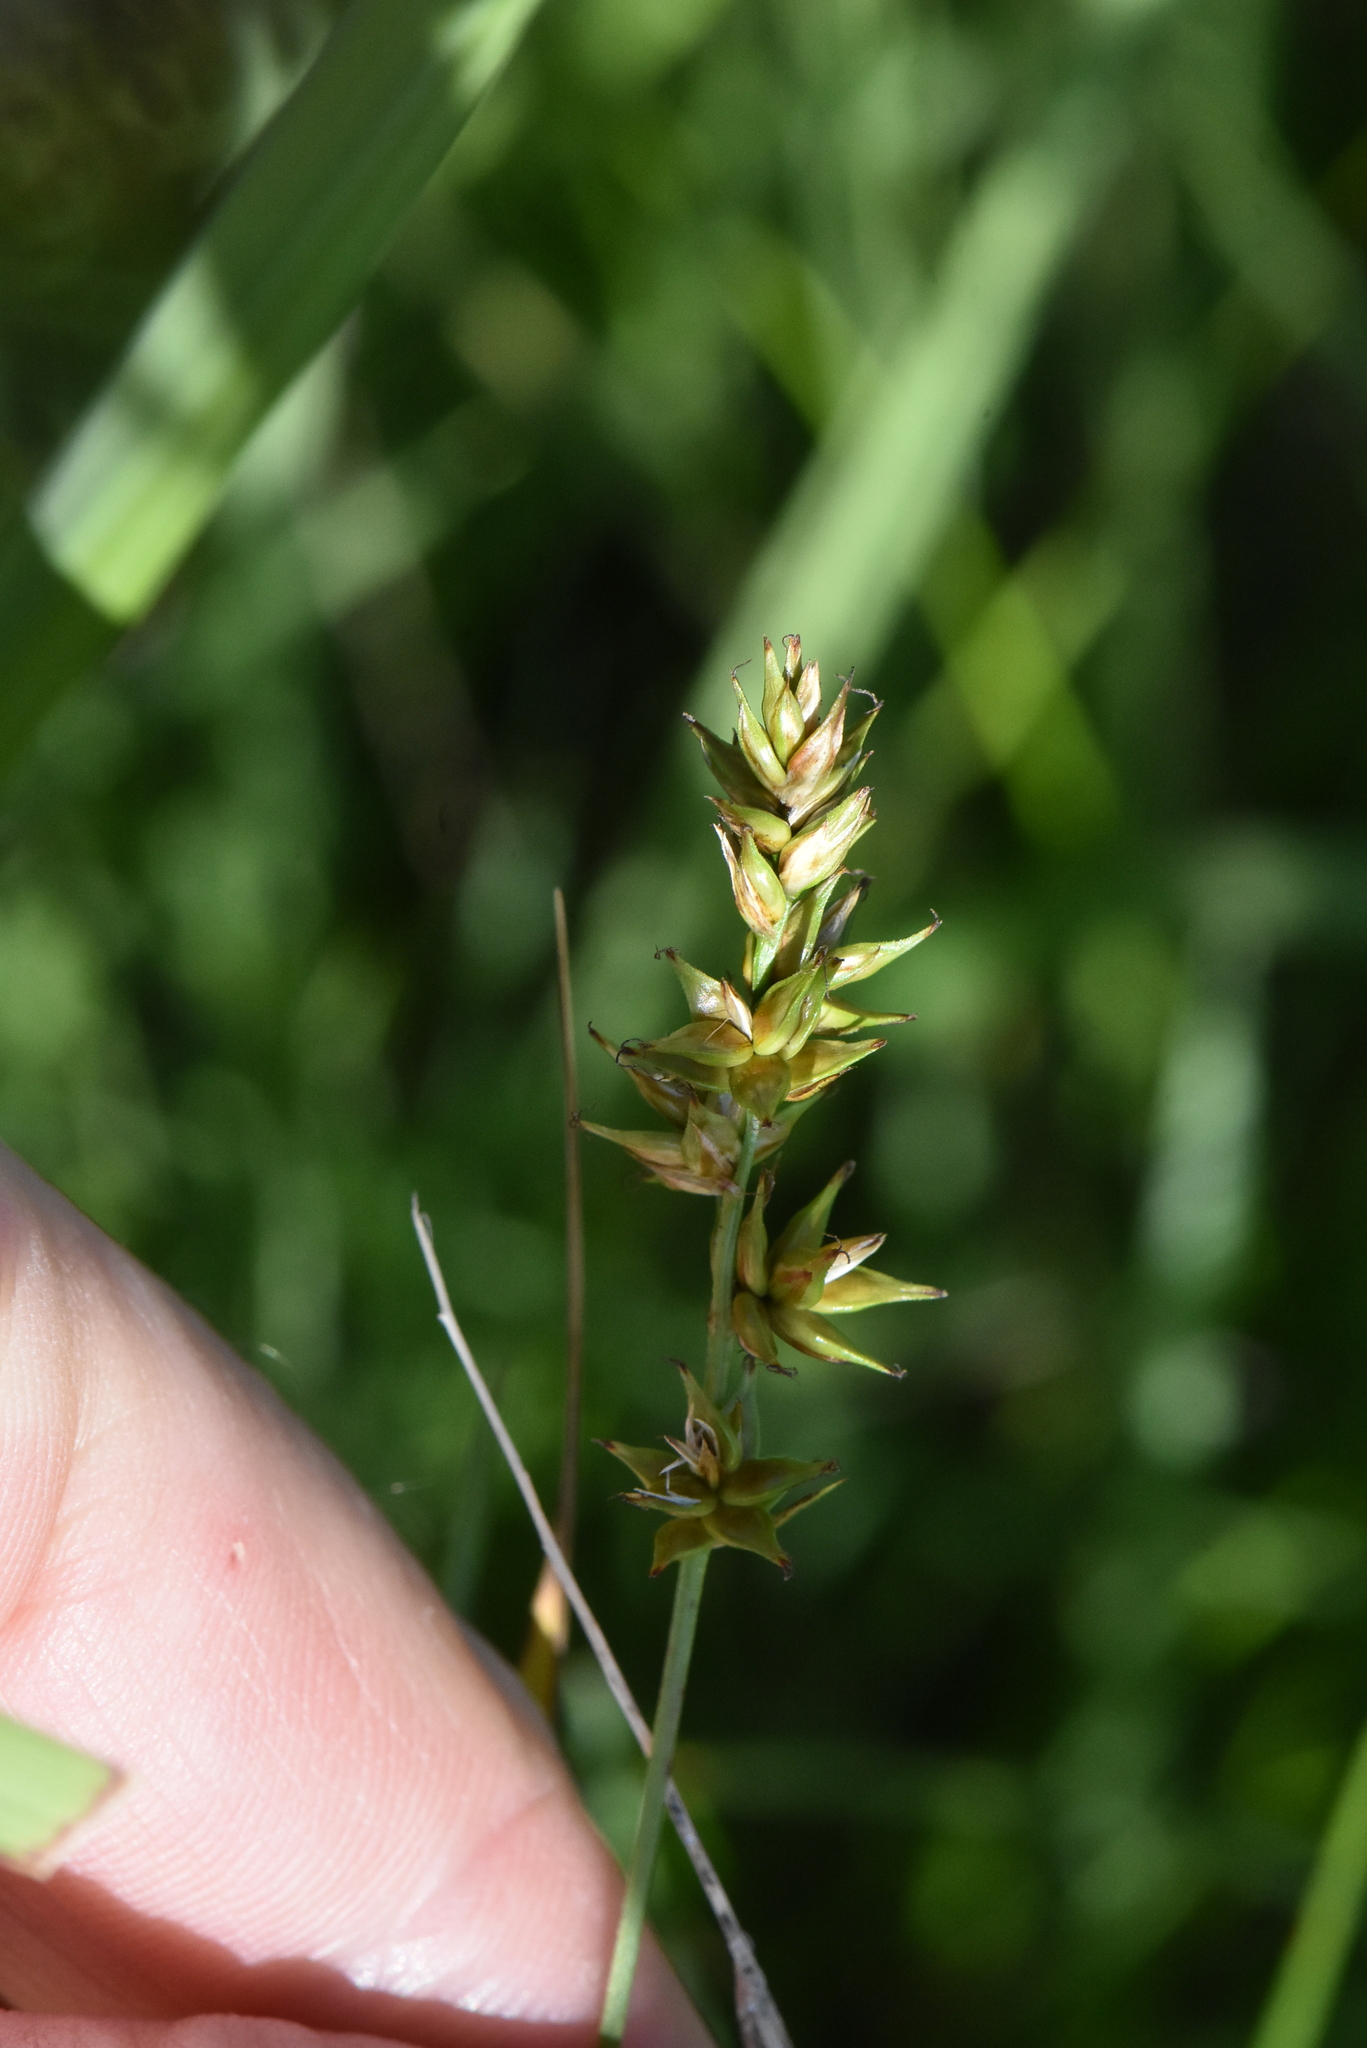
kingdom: Plantae
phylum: Tracheophyta
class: Liliopsida
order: Poales
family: Cyperaceae
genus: Carex
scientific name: Carex spicata
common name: Spiked sedge
